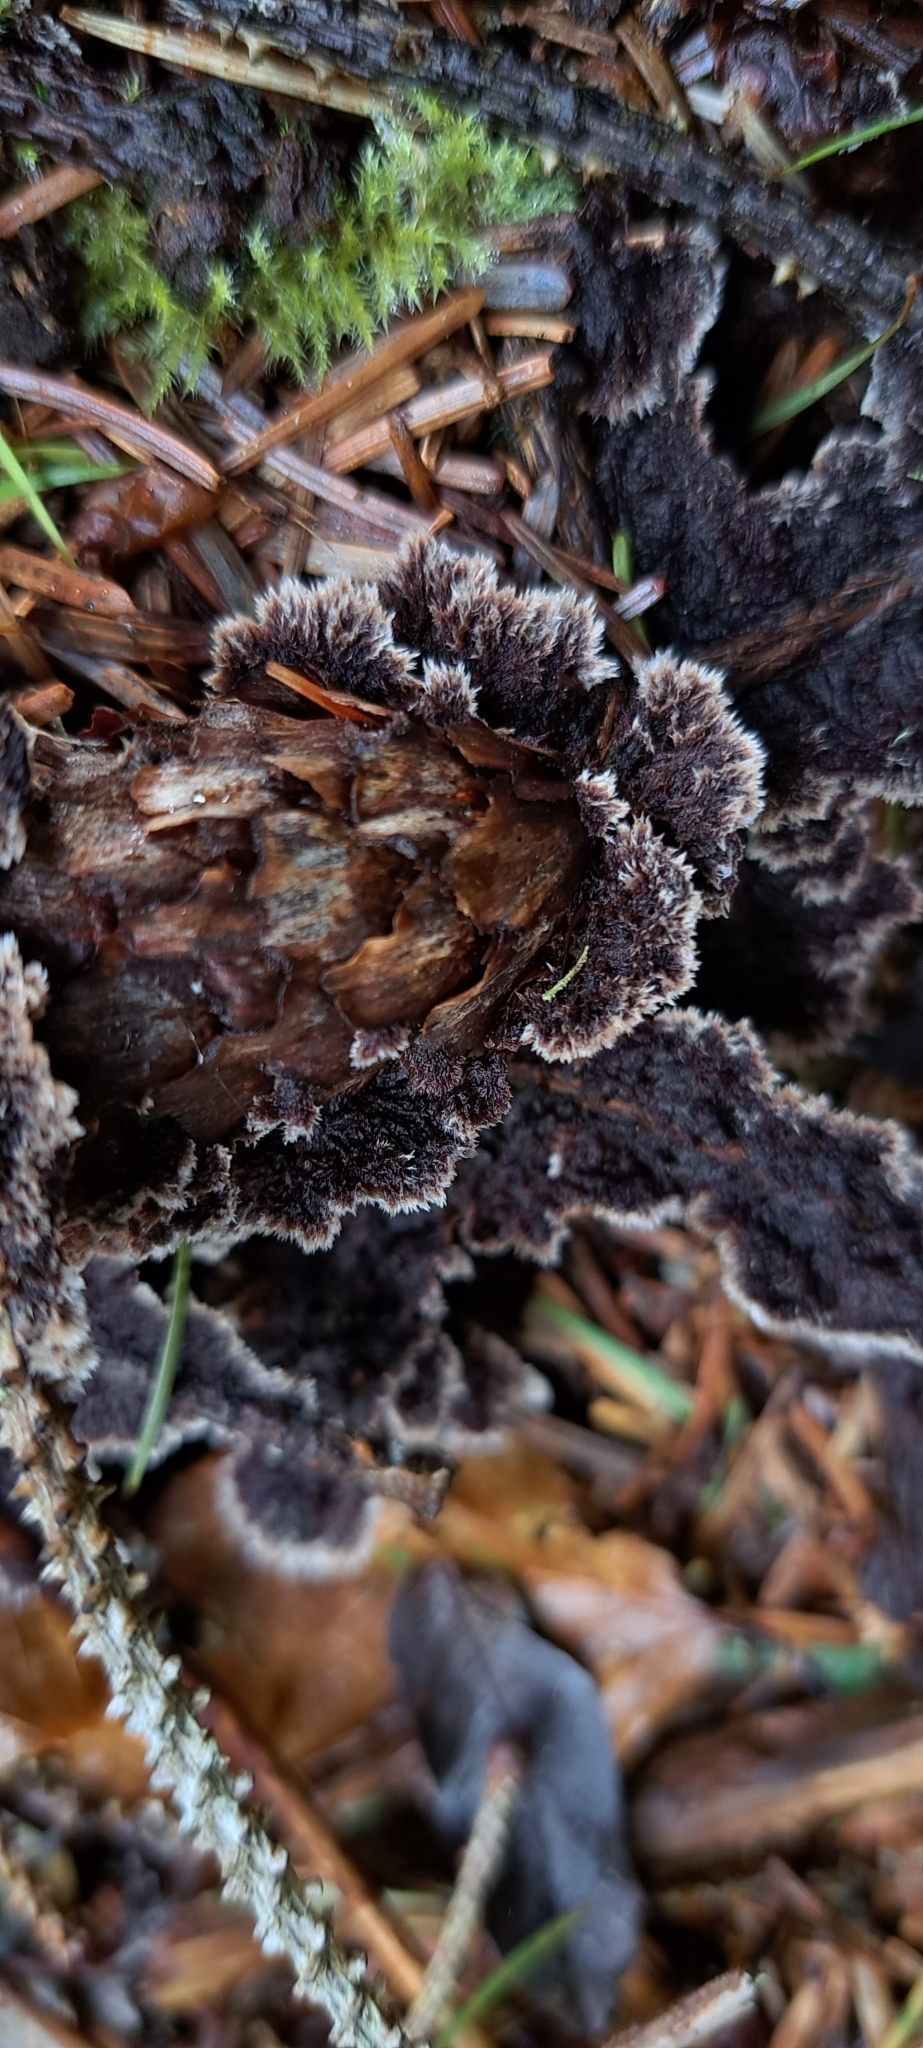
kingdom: Fungi
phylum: Basidiomycota
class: Agaricomycetes
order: Thelephorales
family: Thelephoraceae
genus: Thelephora
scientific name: Thelephora terrestris
